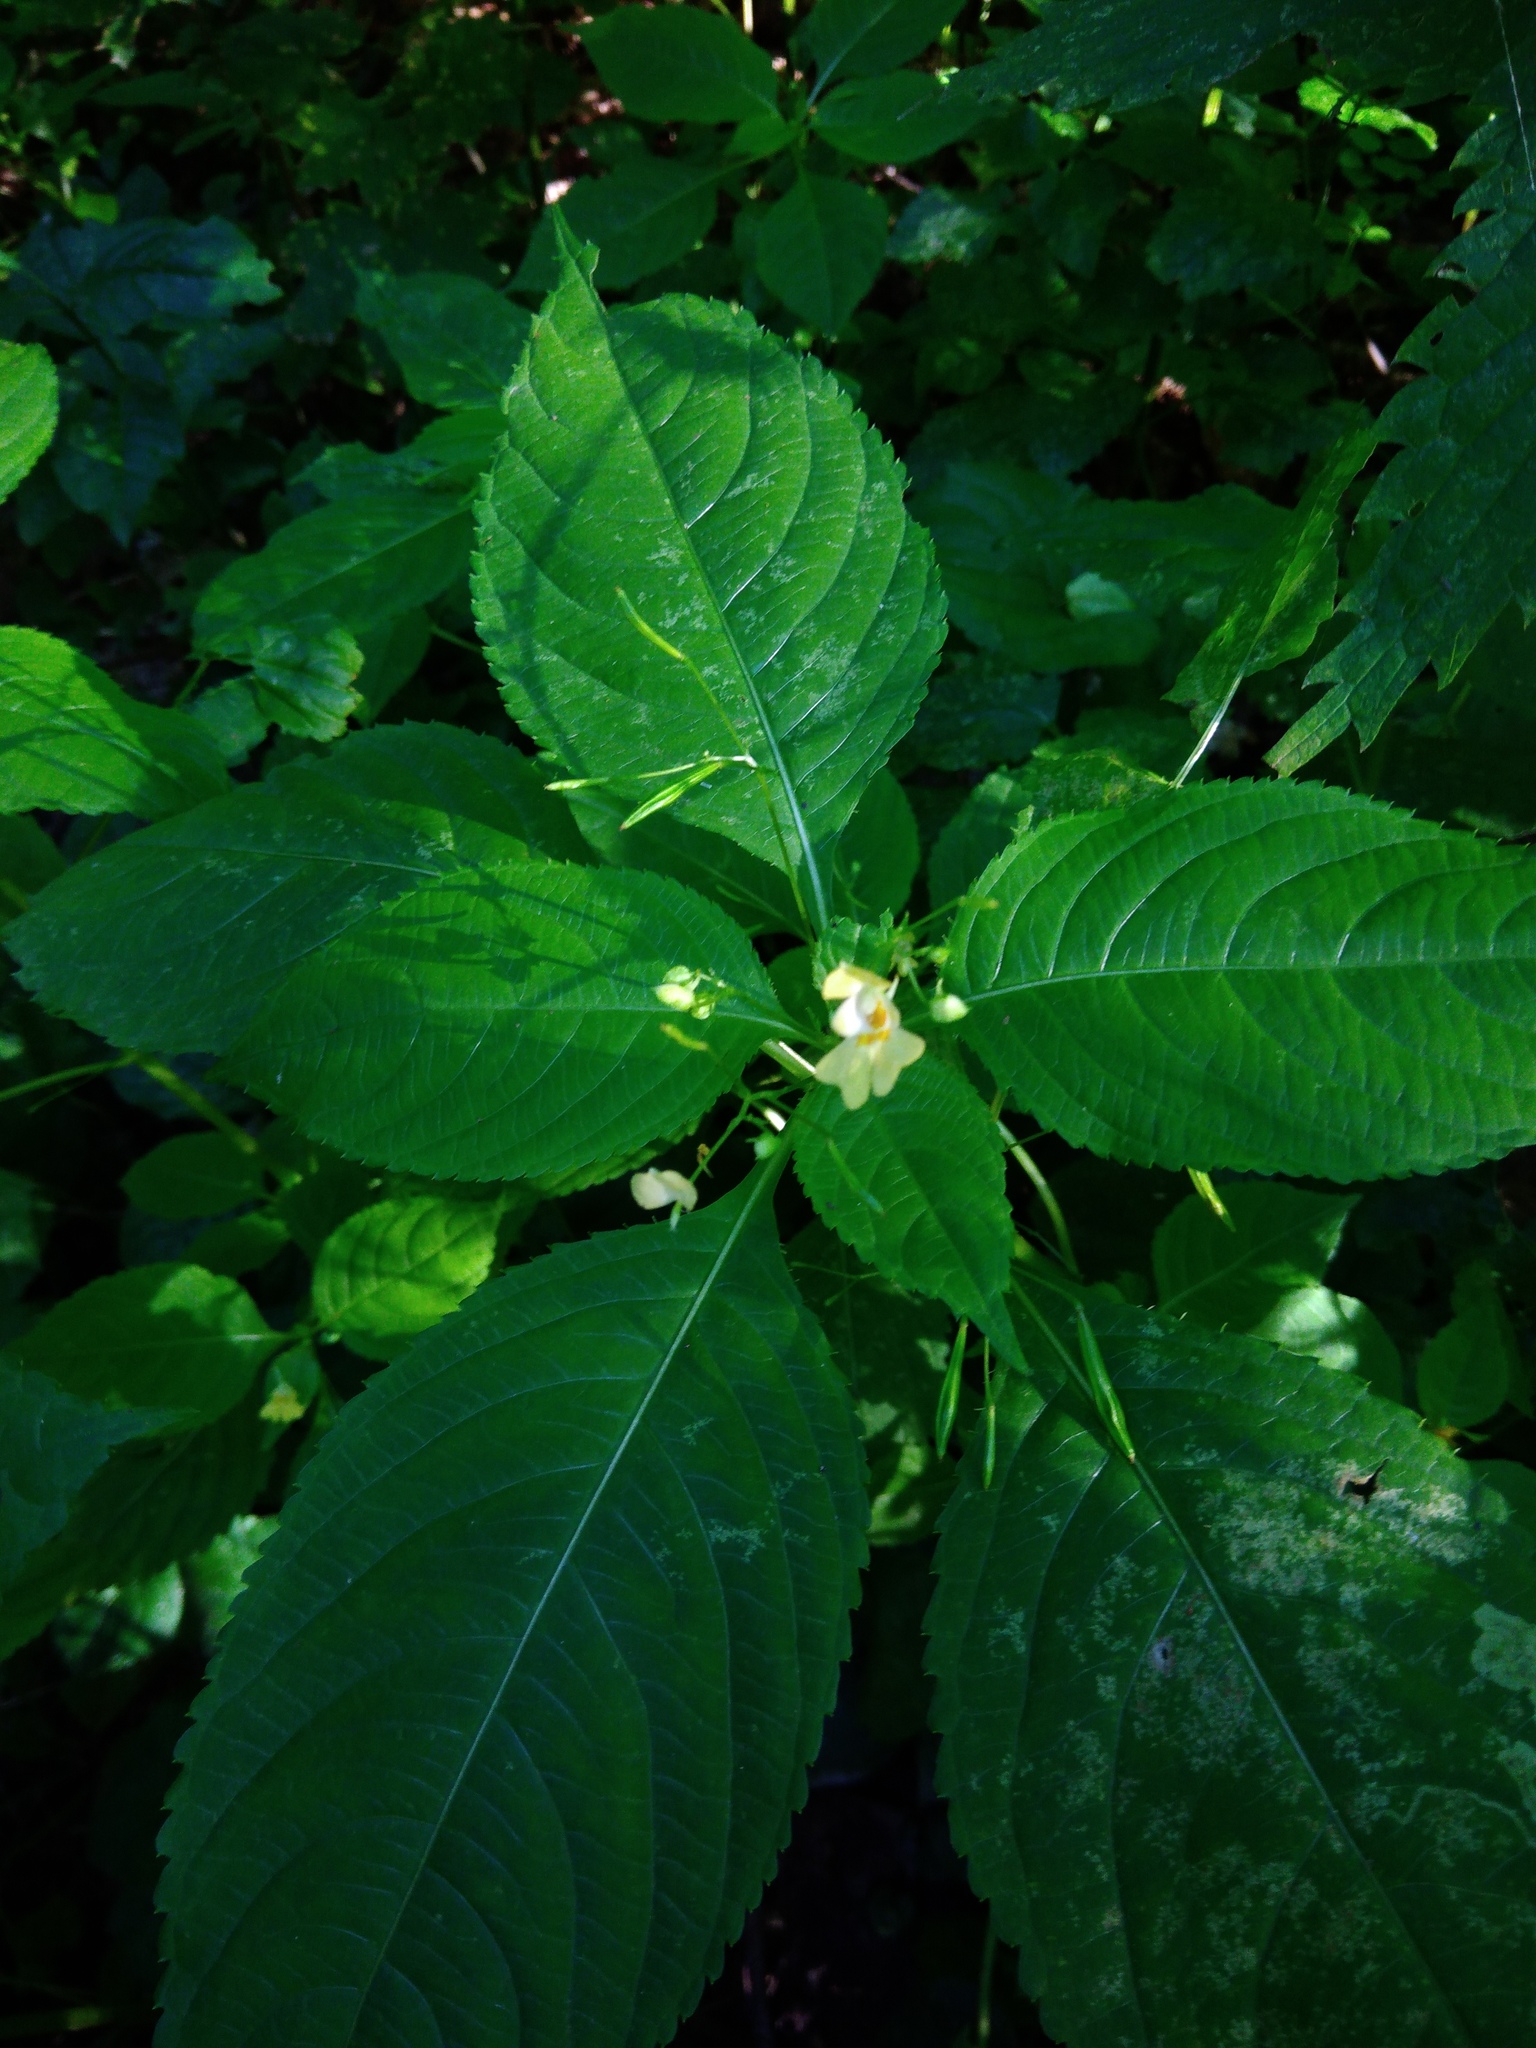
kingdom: Plantae
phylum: Tracheophyta
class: Magnoliopsida
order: Ericales
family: Balsaminaceae
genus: Impatiens
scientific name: Impatiens parviflora
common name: Small balsam
